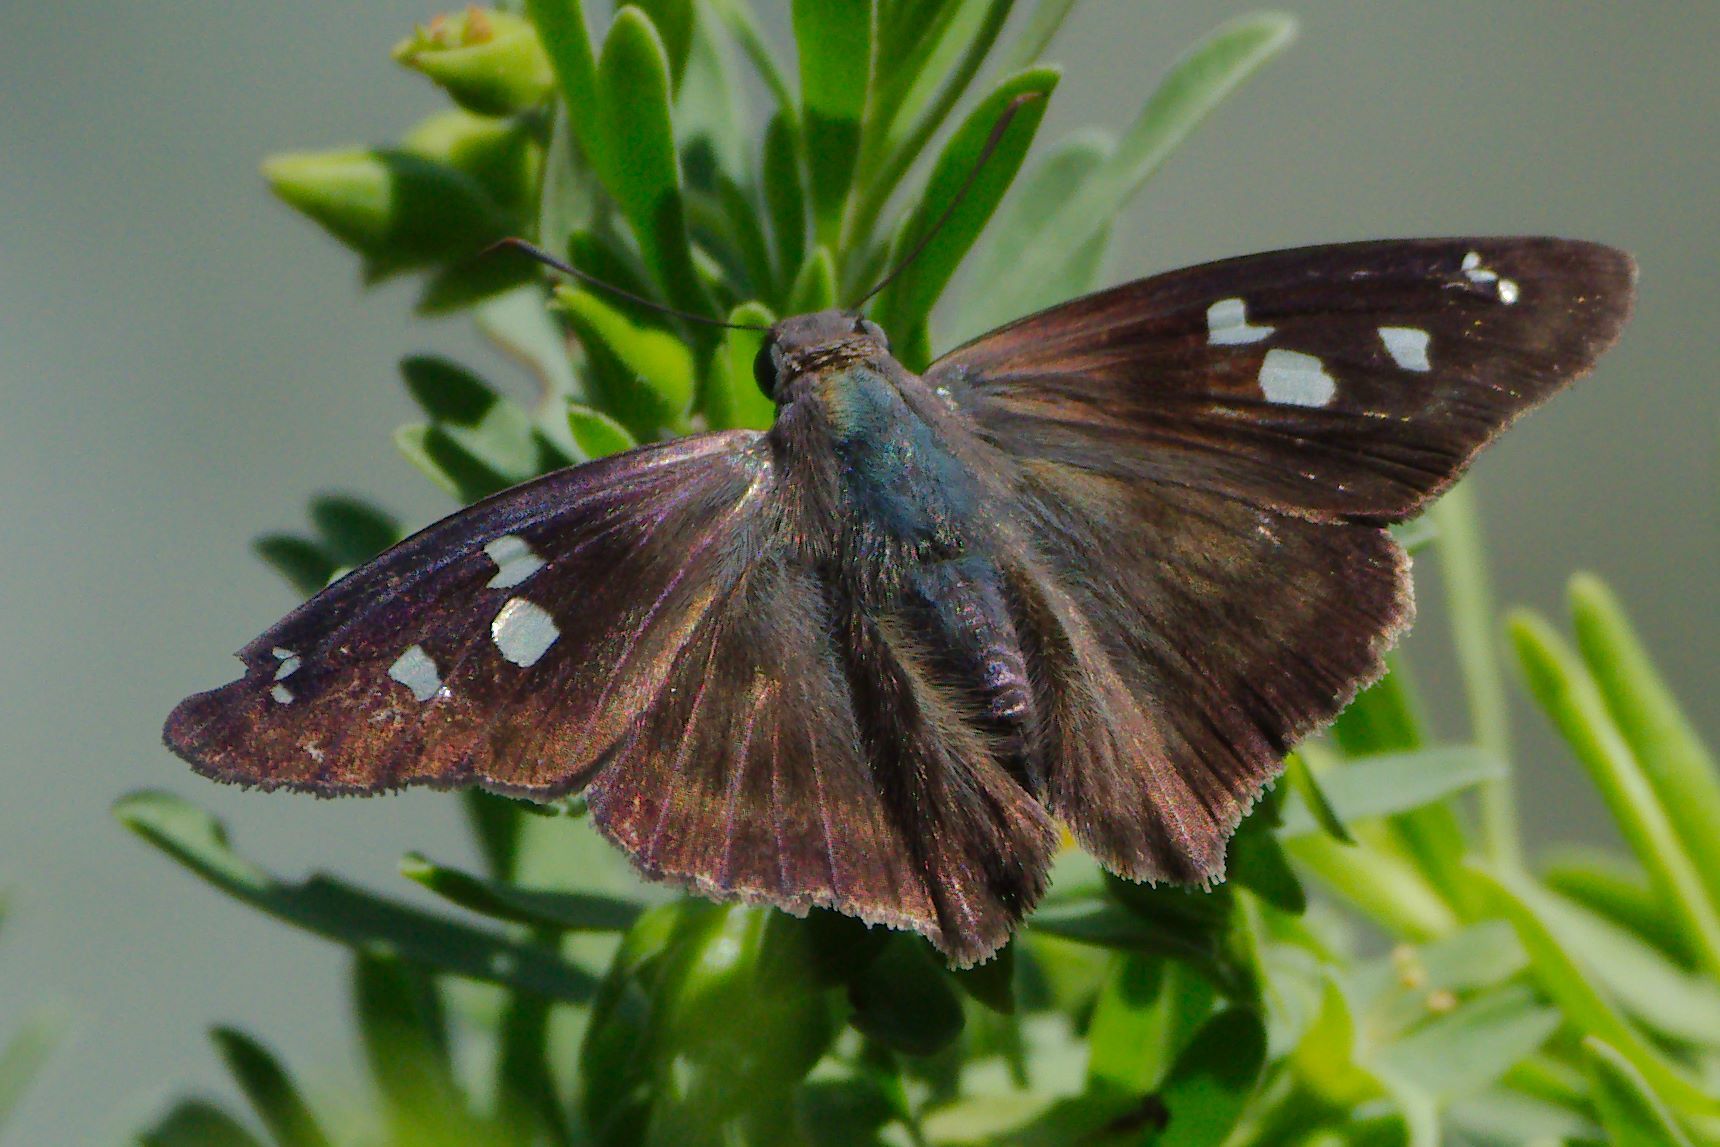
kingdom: Animalia
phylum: Arthropoda
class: Insecta
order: Lepidoptera
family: Hesperiidae
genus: Polygonus
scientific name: Polygonus leo
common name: Hammoch skipper
